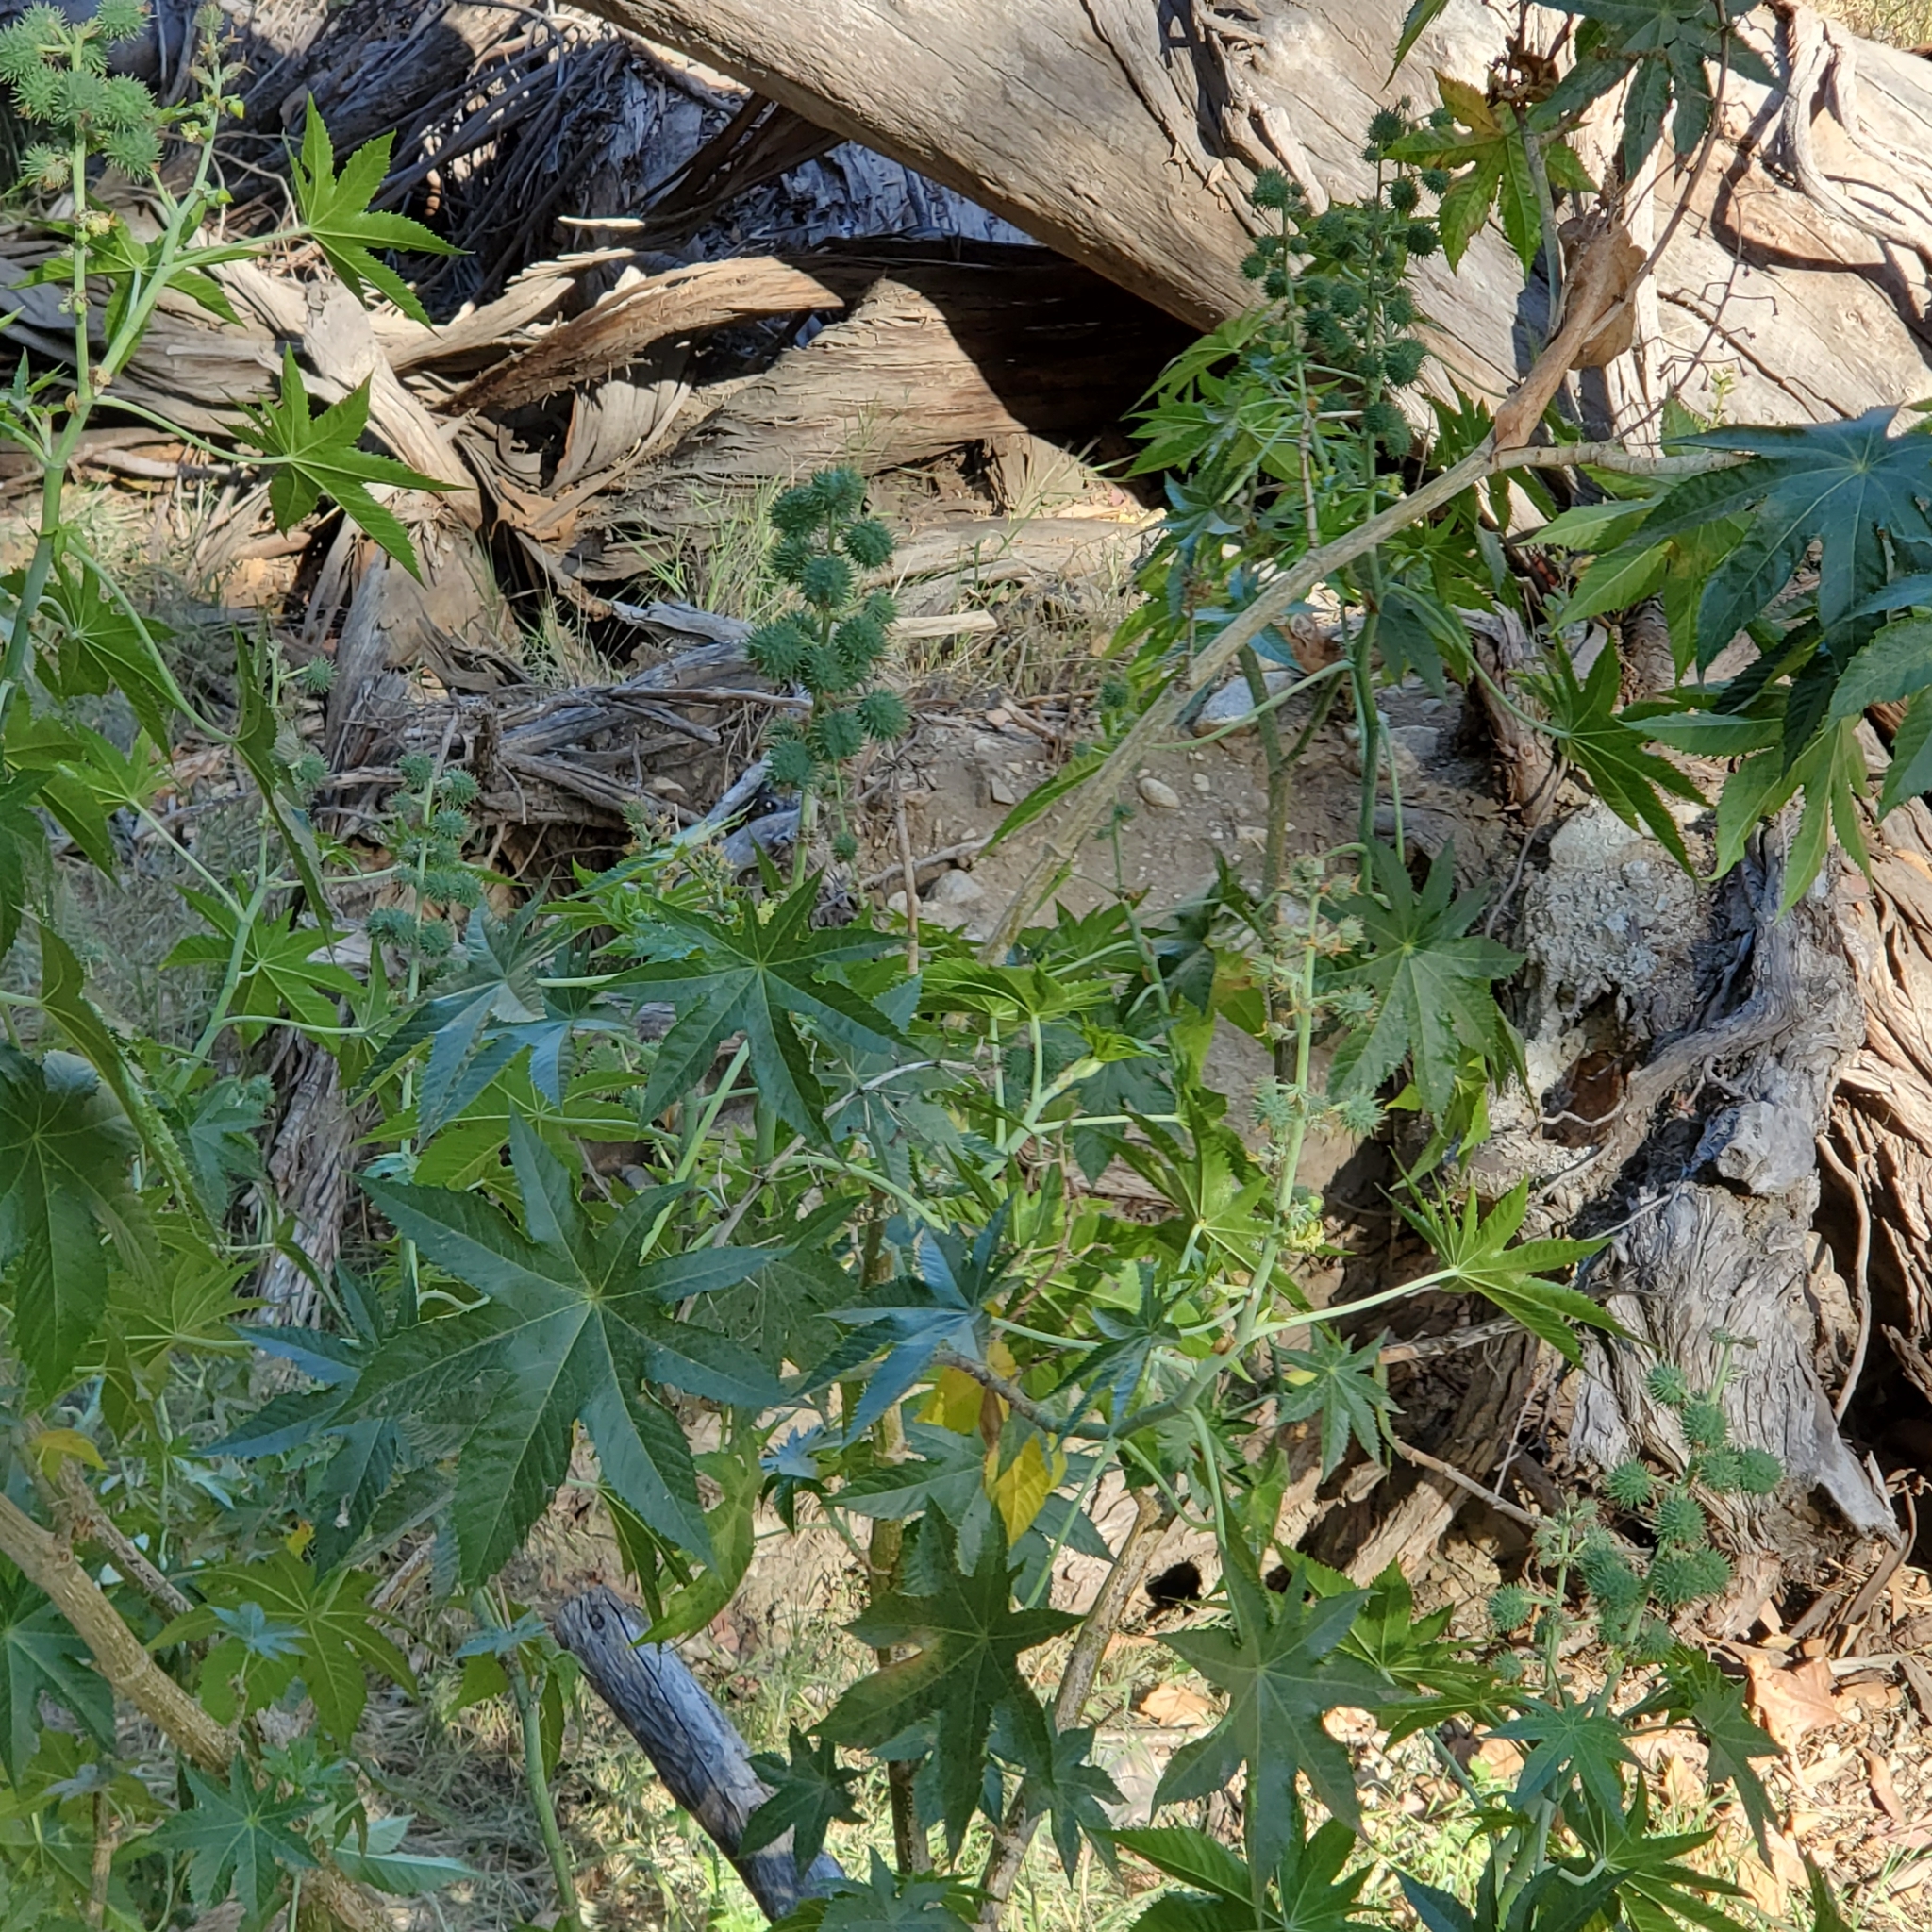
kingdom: Plantae
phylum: Tracheophyta
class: Magnoliopsida
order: Malpighiales
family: Euphorbiaceae
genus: Ricinus
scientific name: Ricinus communis
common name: Castor-oil-plant
